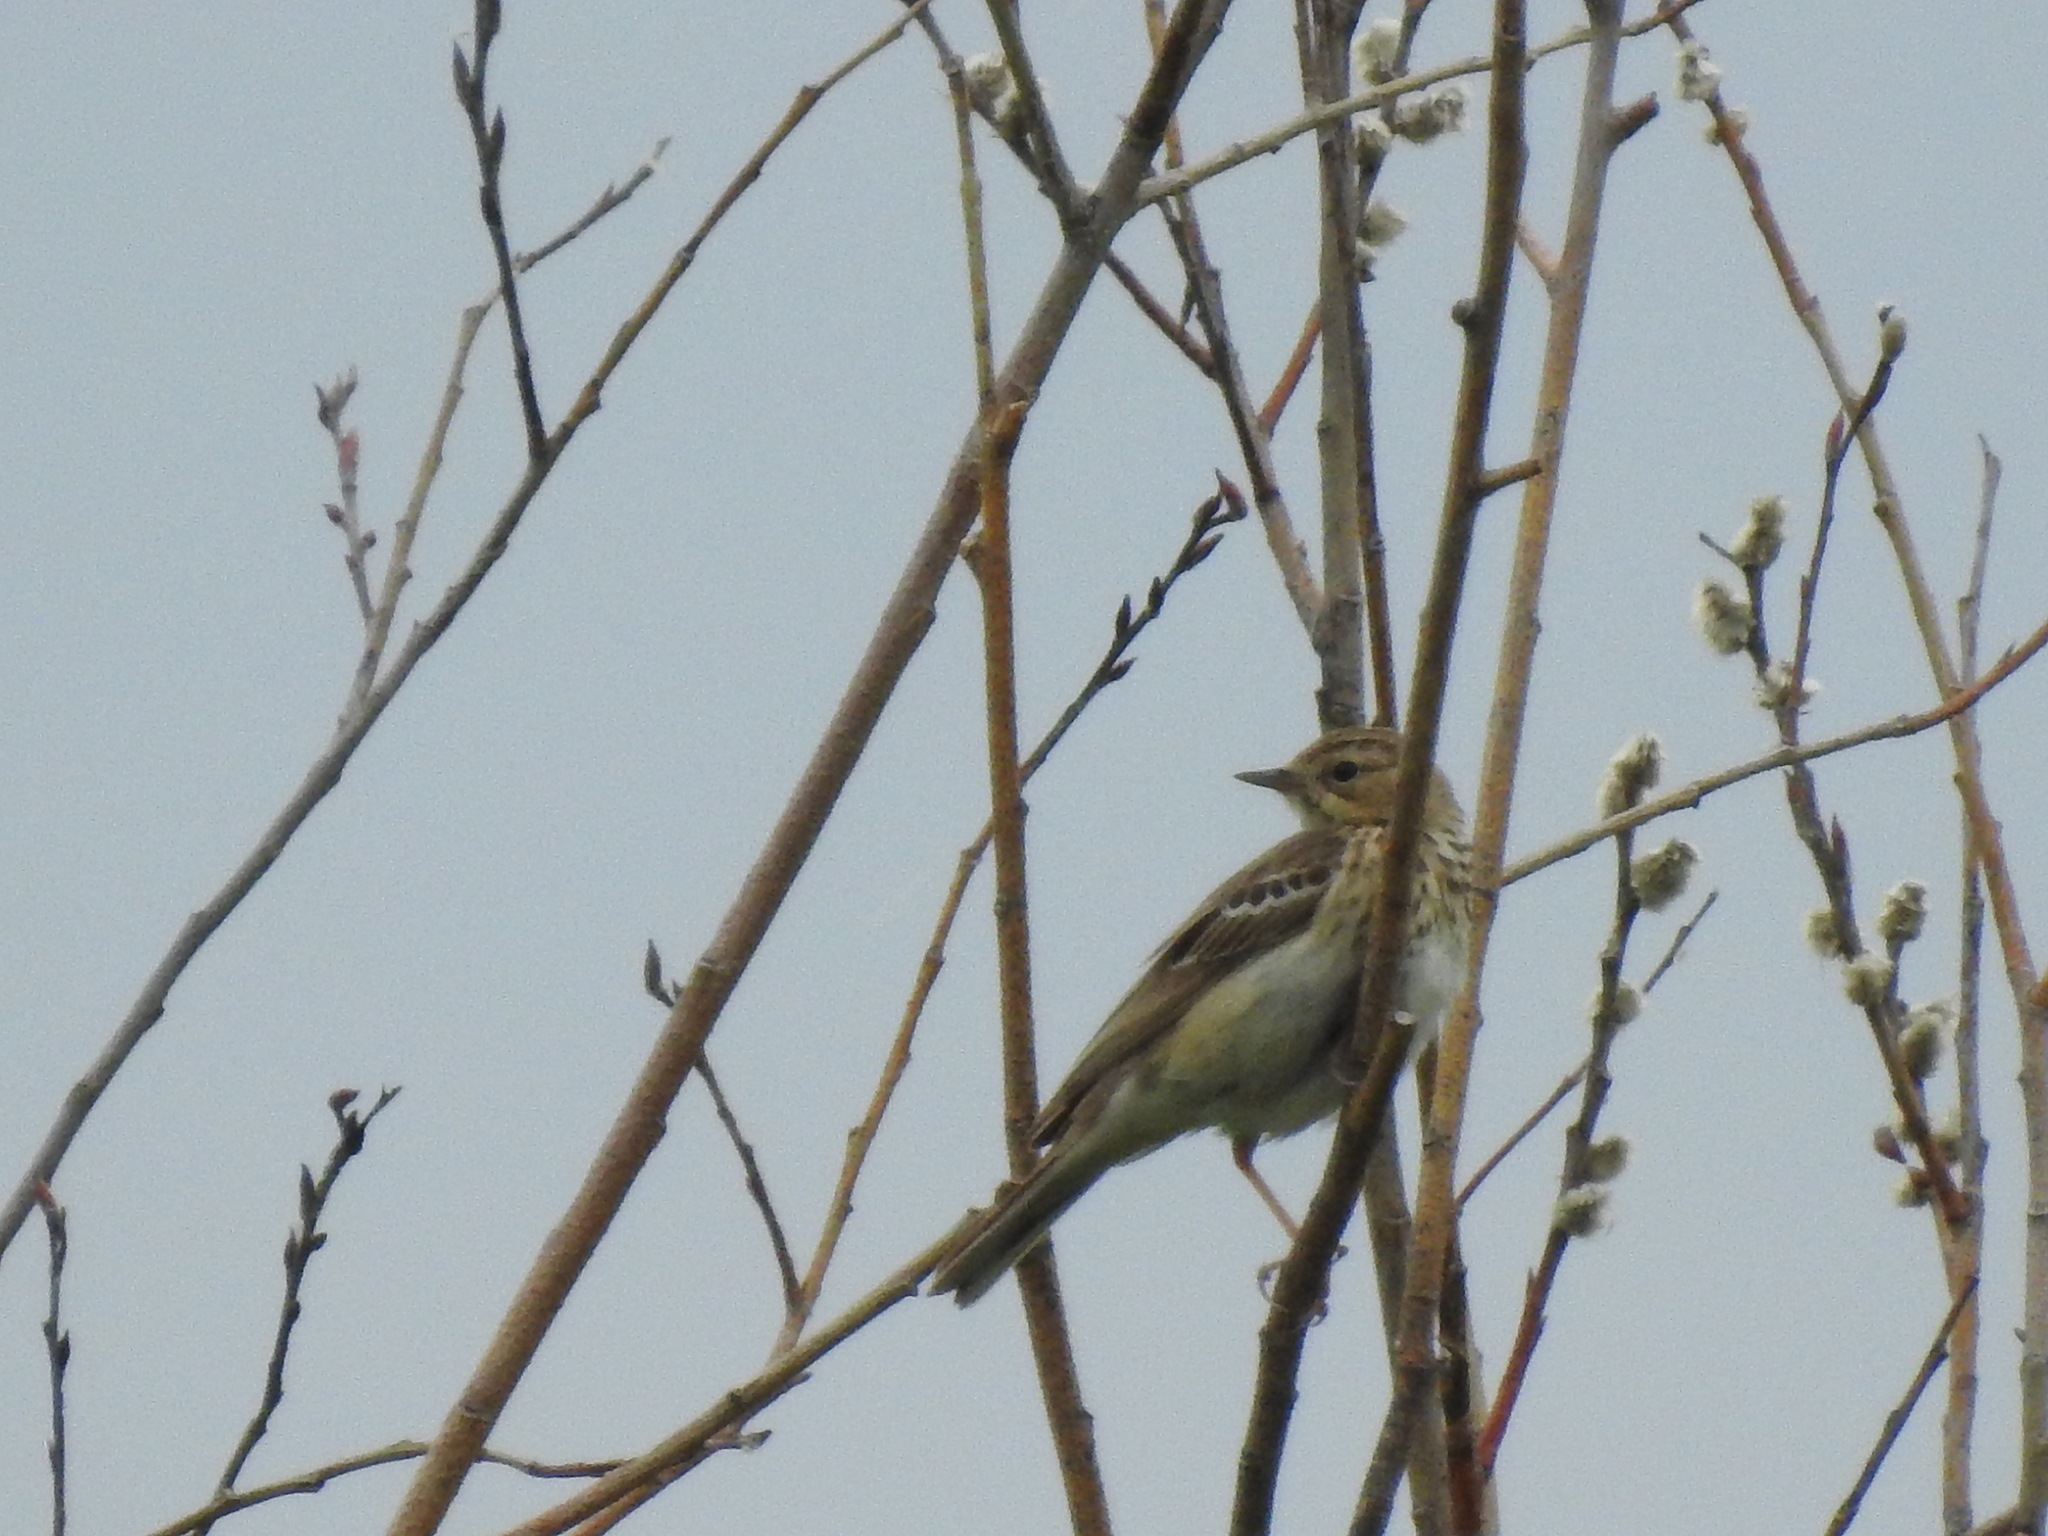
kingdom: Animalia
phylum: Chordata
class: Aves
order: Passeriformes
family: Motacillidae
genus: Anthus
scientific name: Anthus trivialis
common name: Tree pipit
